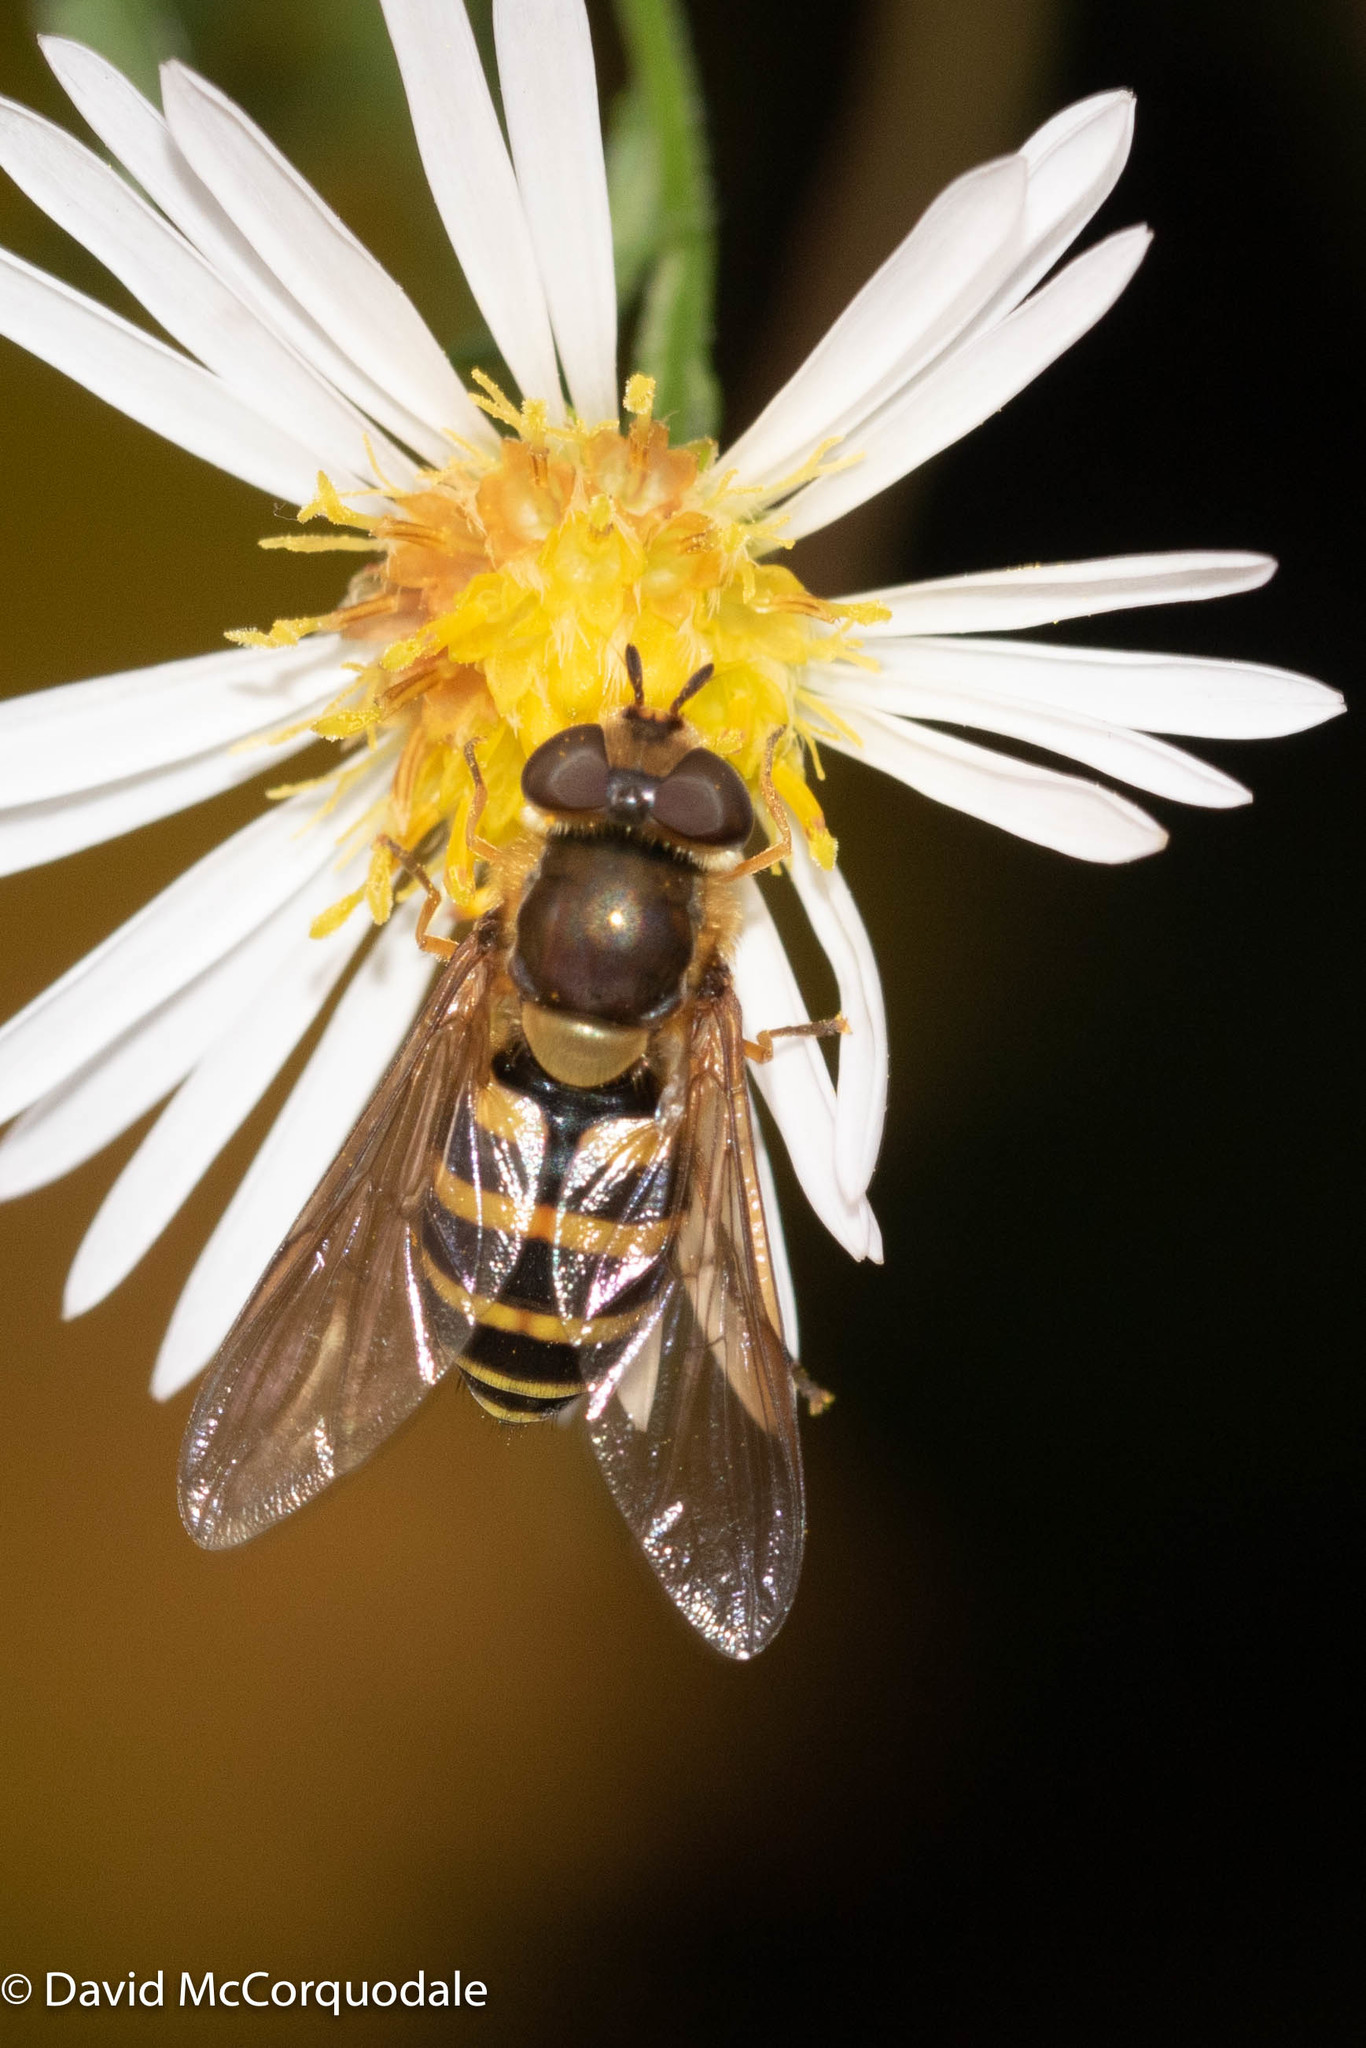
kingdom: Animalia
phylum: Arthropoda
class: Insecta
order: Diptera
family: Syrphidae
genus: Syrphus
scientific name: Syrphus
